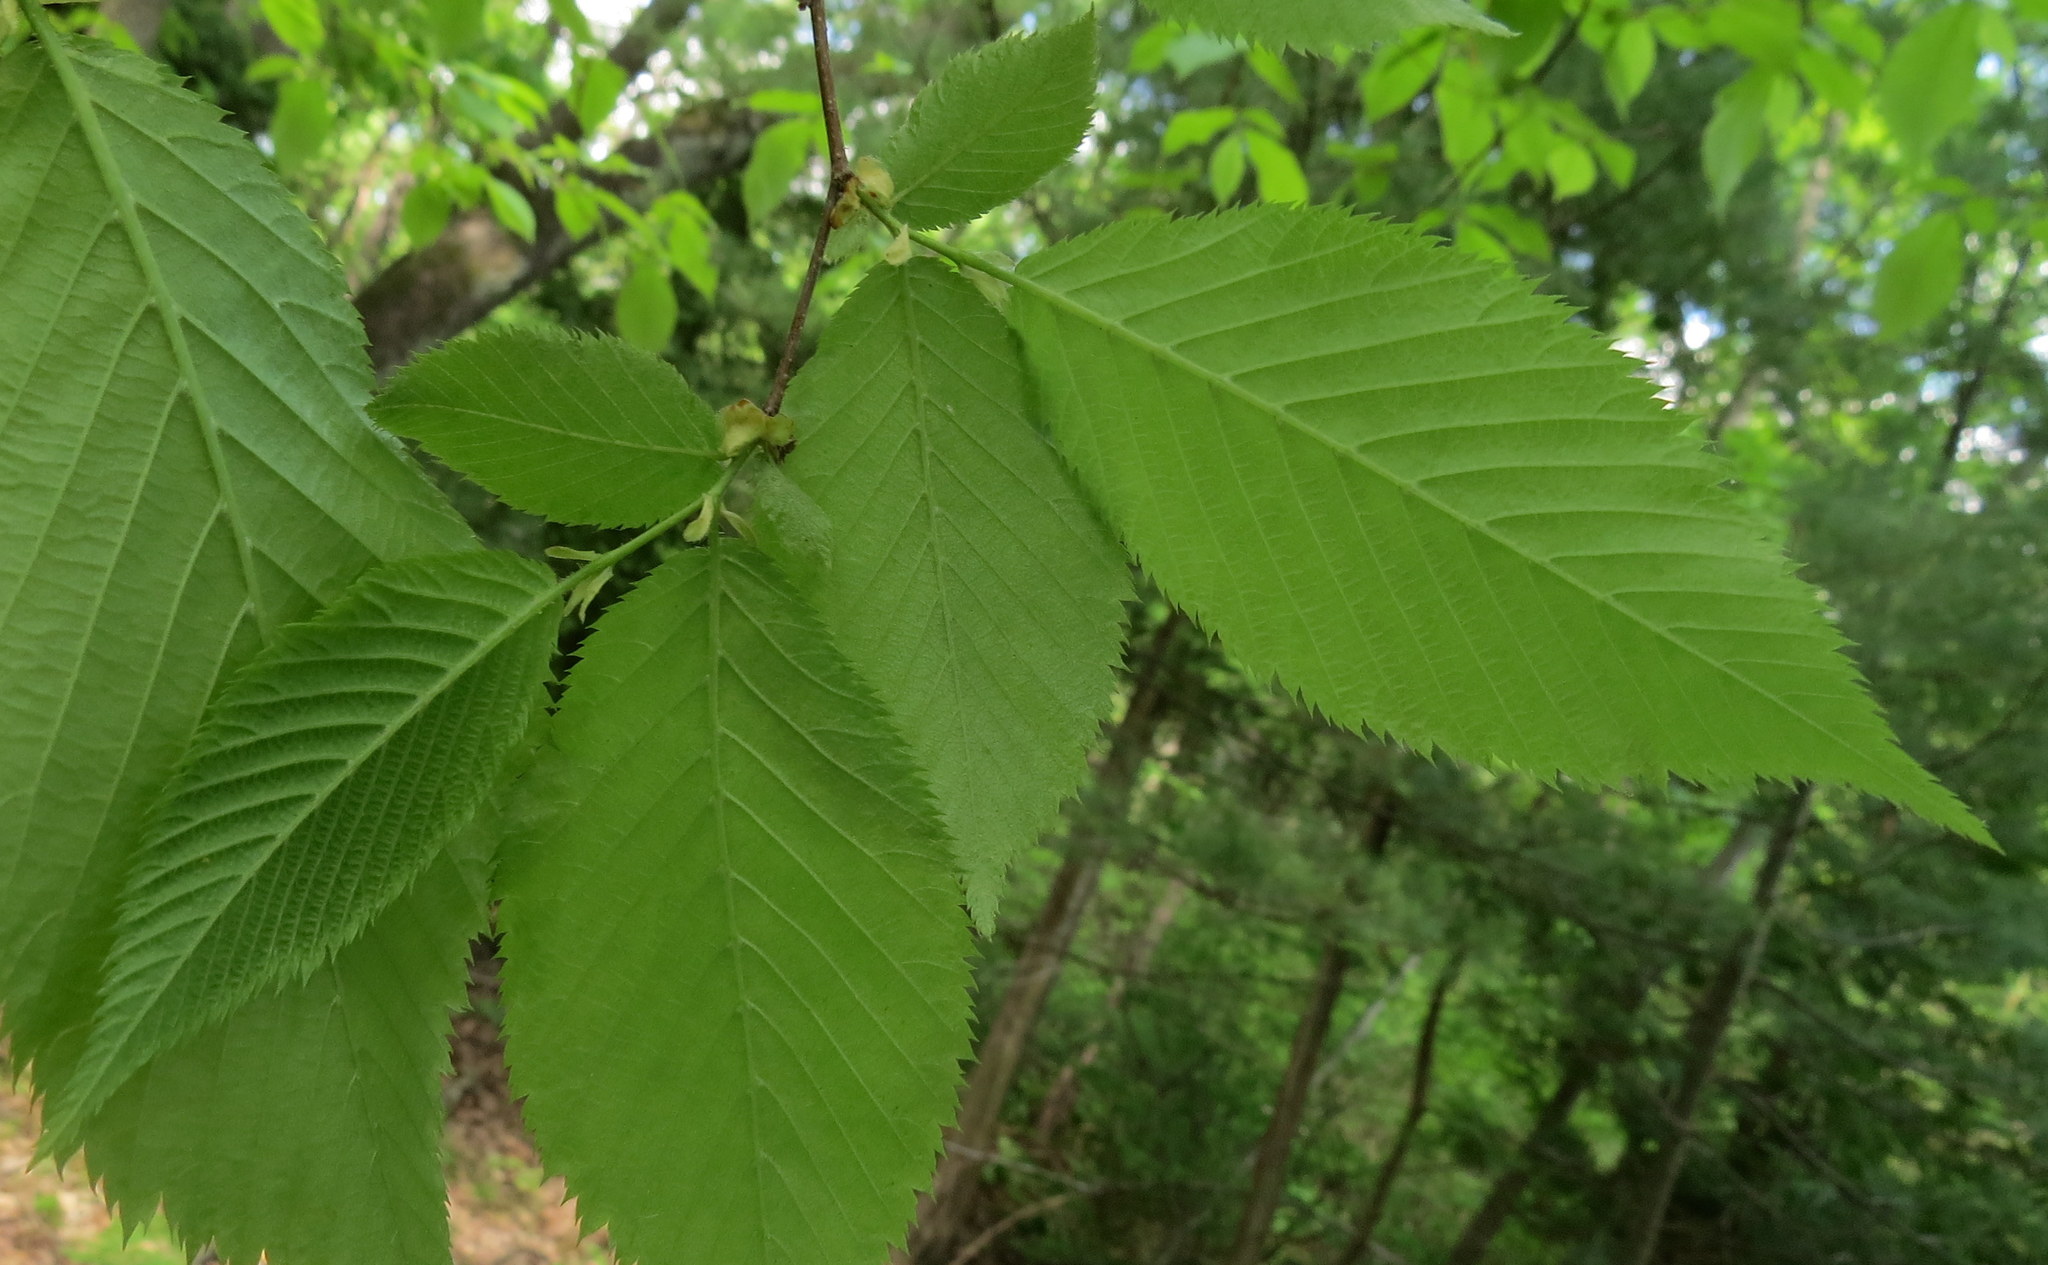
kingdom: Plantae
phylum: Tracheophyta
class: Magnoliopsida
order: Fagales
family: Betulaceae
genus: Ostrya
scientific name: Ostrya virginiana
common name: Ironwood
